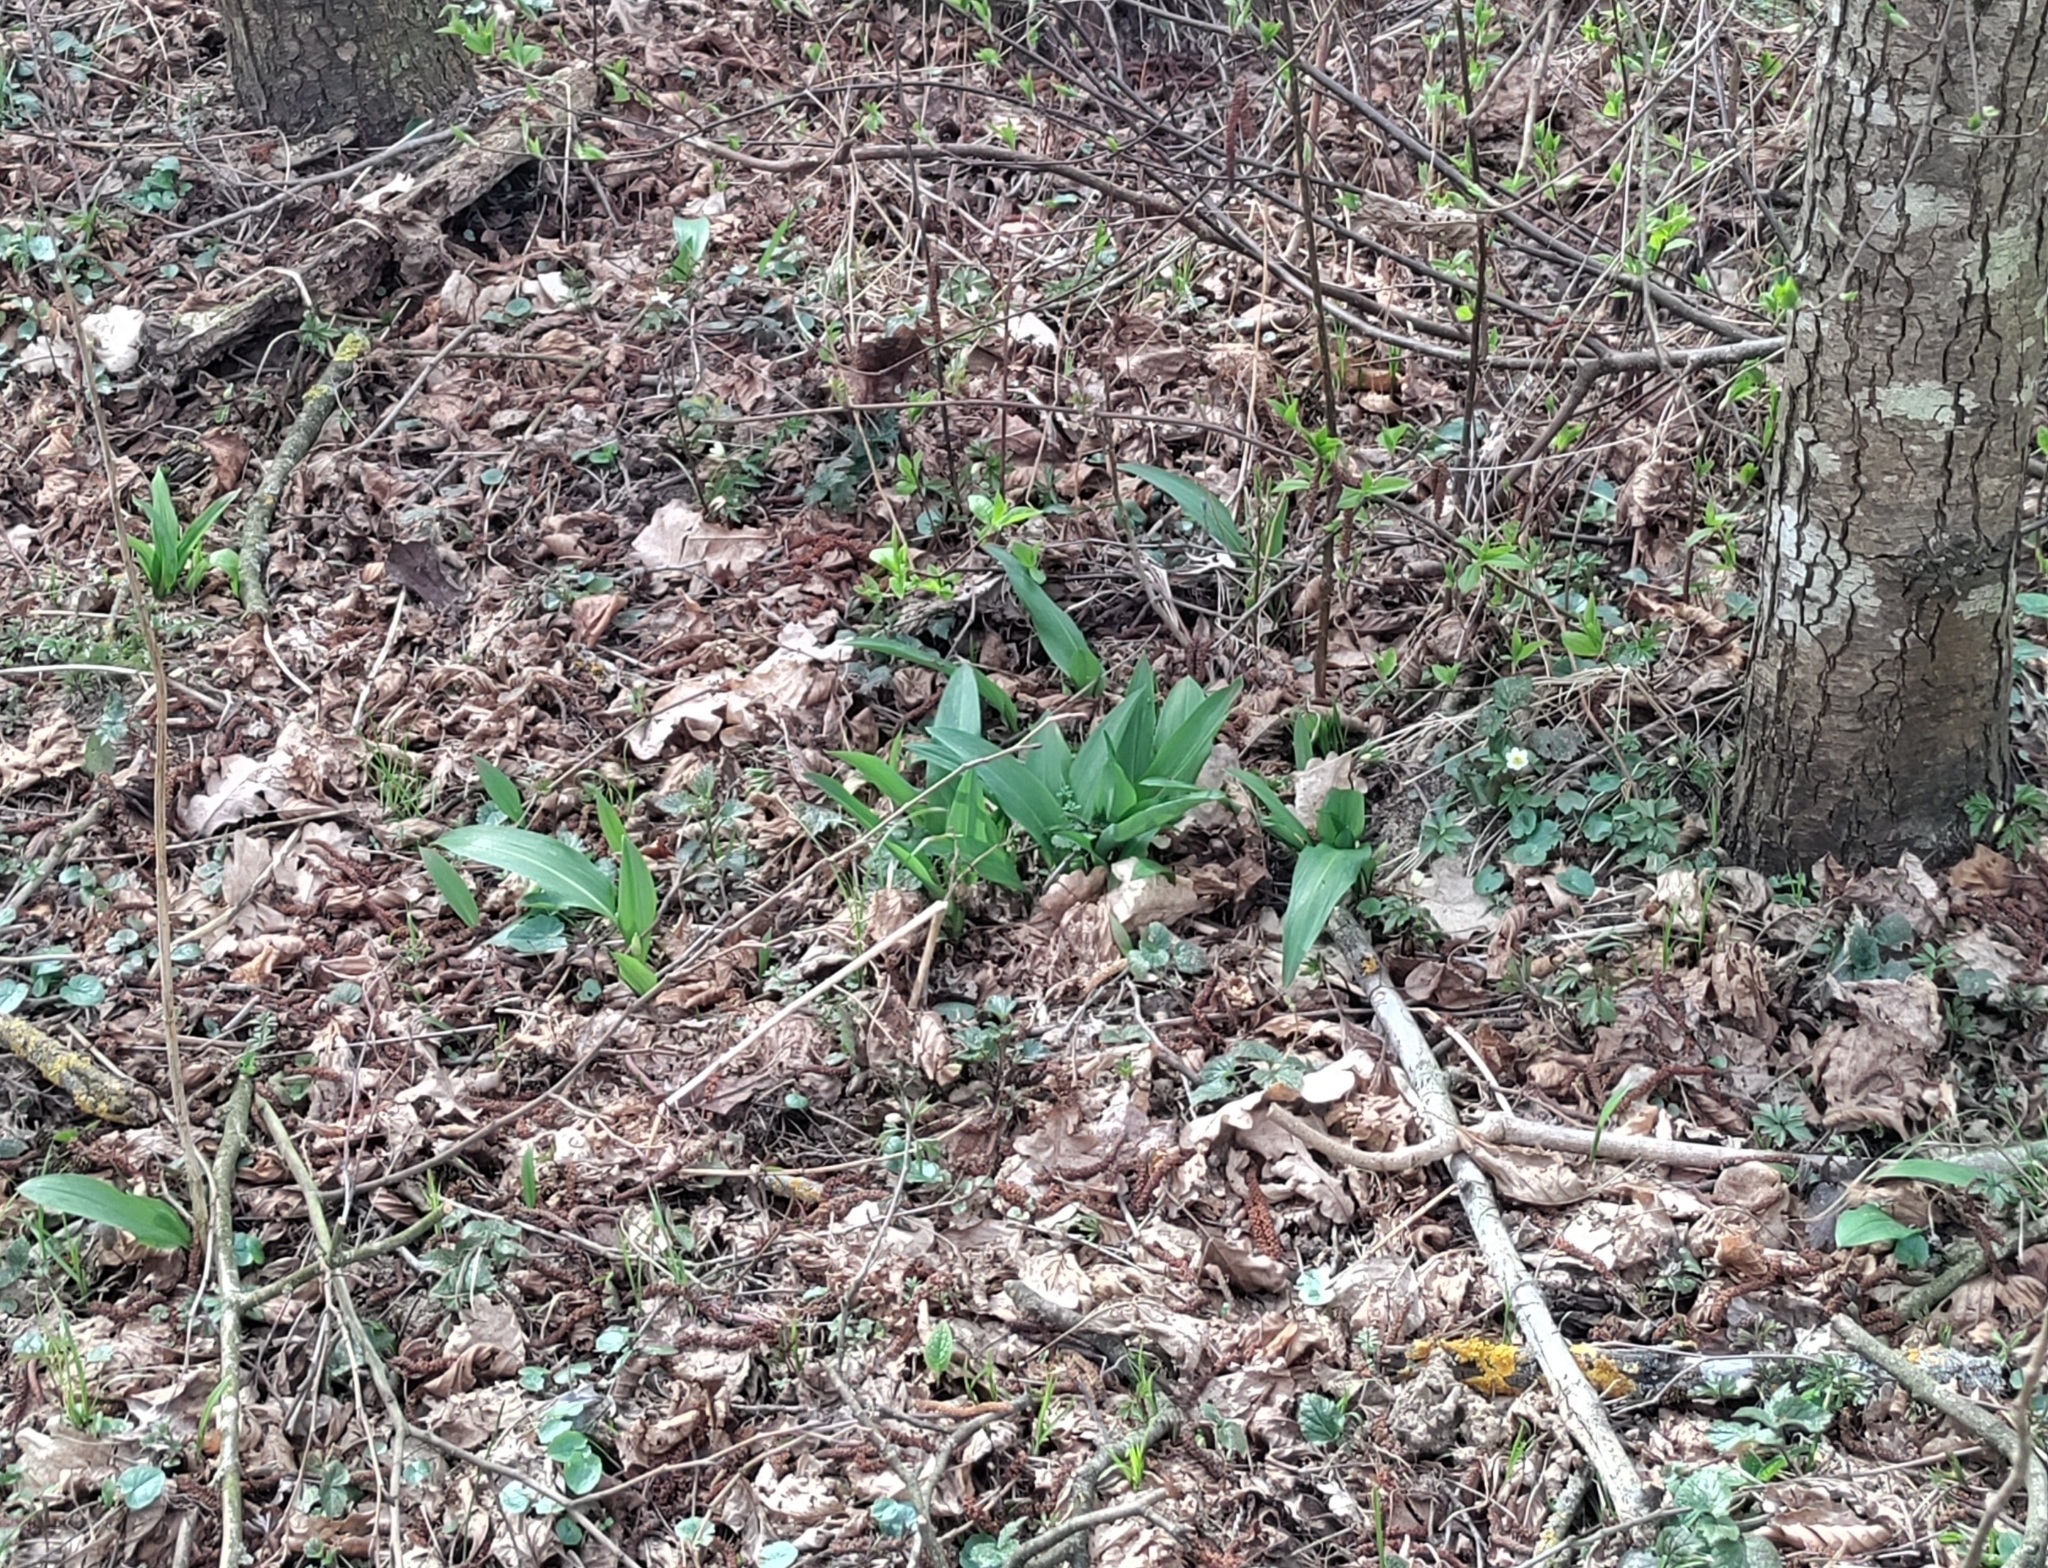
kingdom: Plantae
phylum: Tracheophyta
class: Liliopsida
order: Asparagales
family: Amaryllidaceae
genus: Allium
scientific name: Allium ursinum
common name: Ramsons
